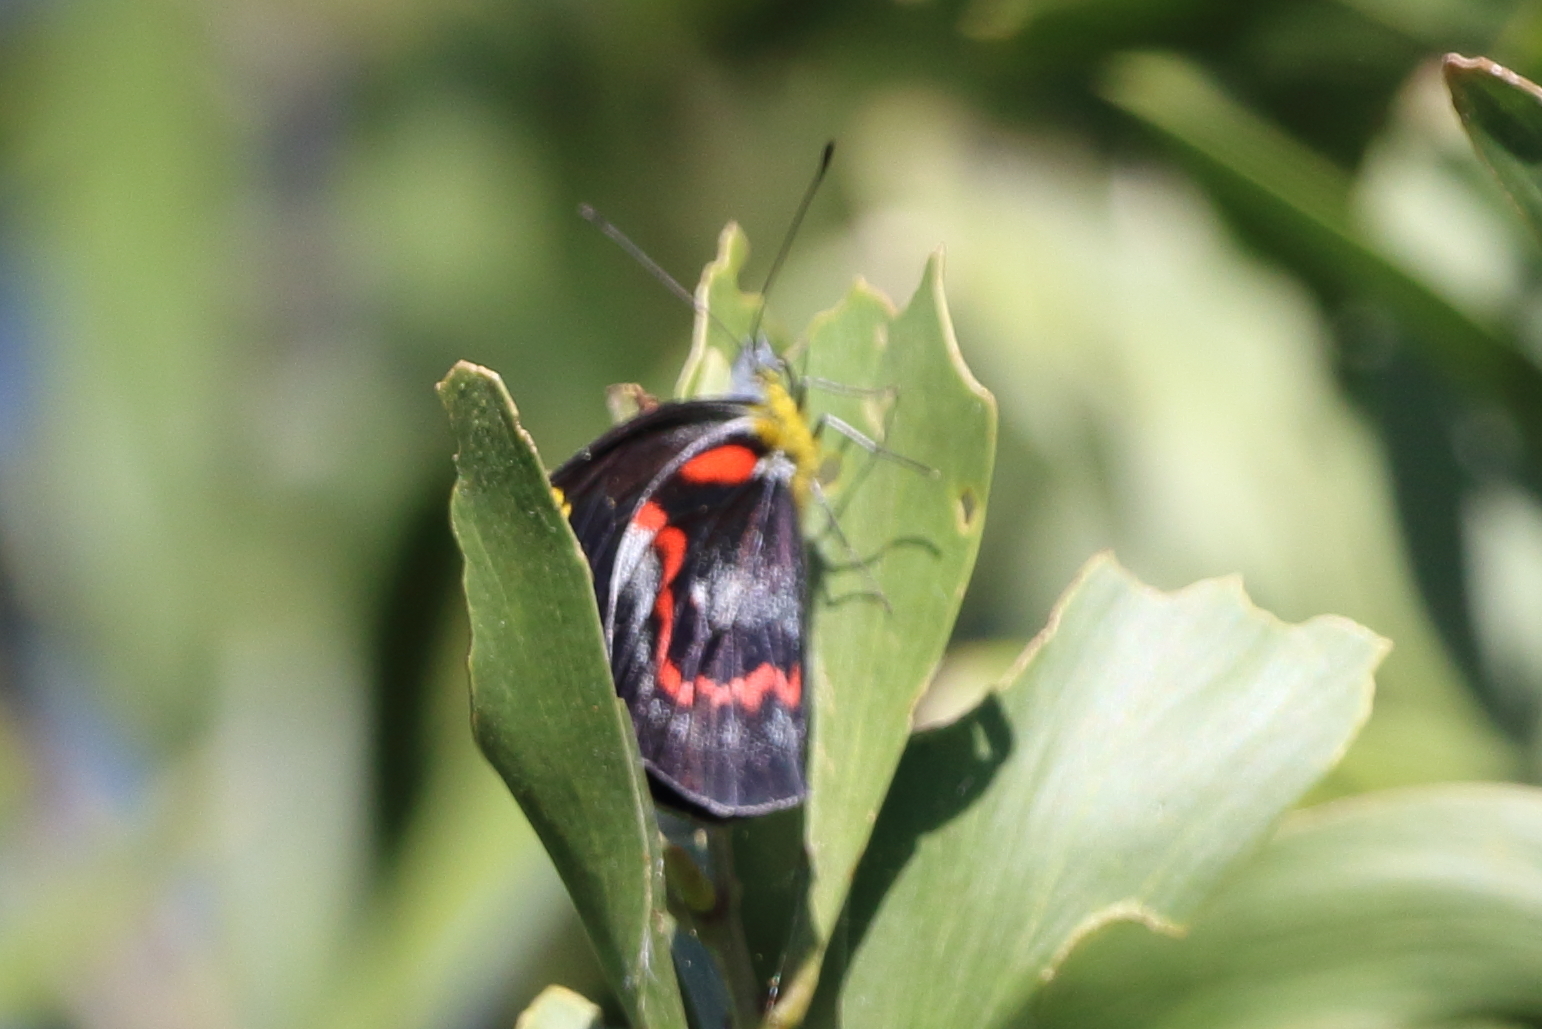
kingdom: Animalia
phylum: Arthropoda
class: Insecta
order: Lepidoptera
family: Pieridae
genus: Delias
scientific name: Delias nigrina
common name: Black jezebel
